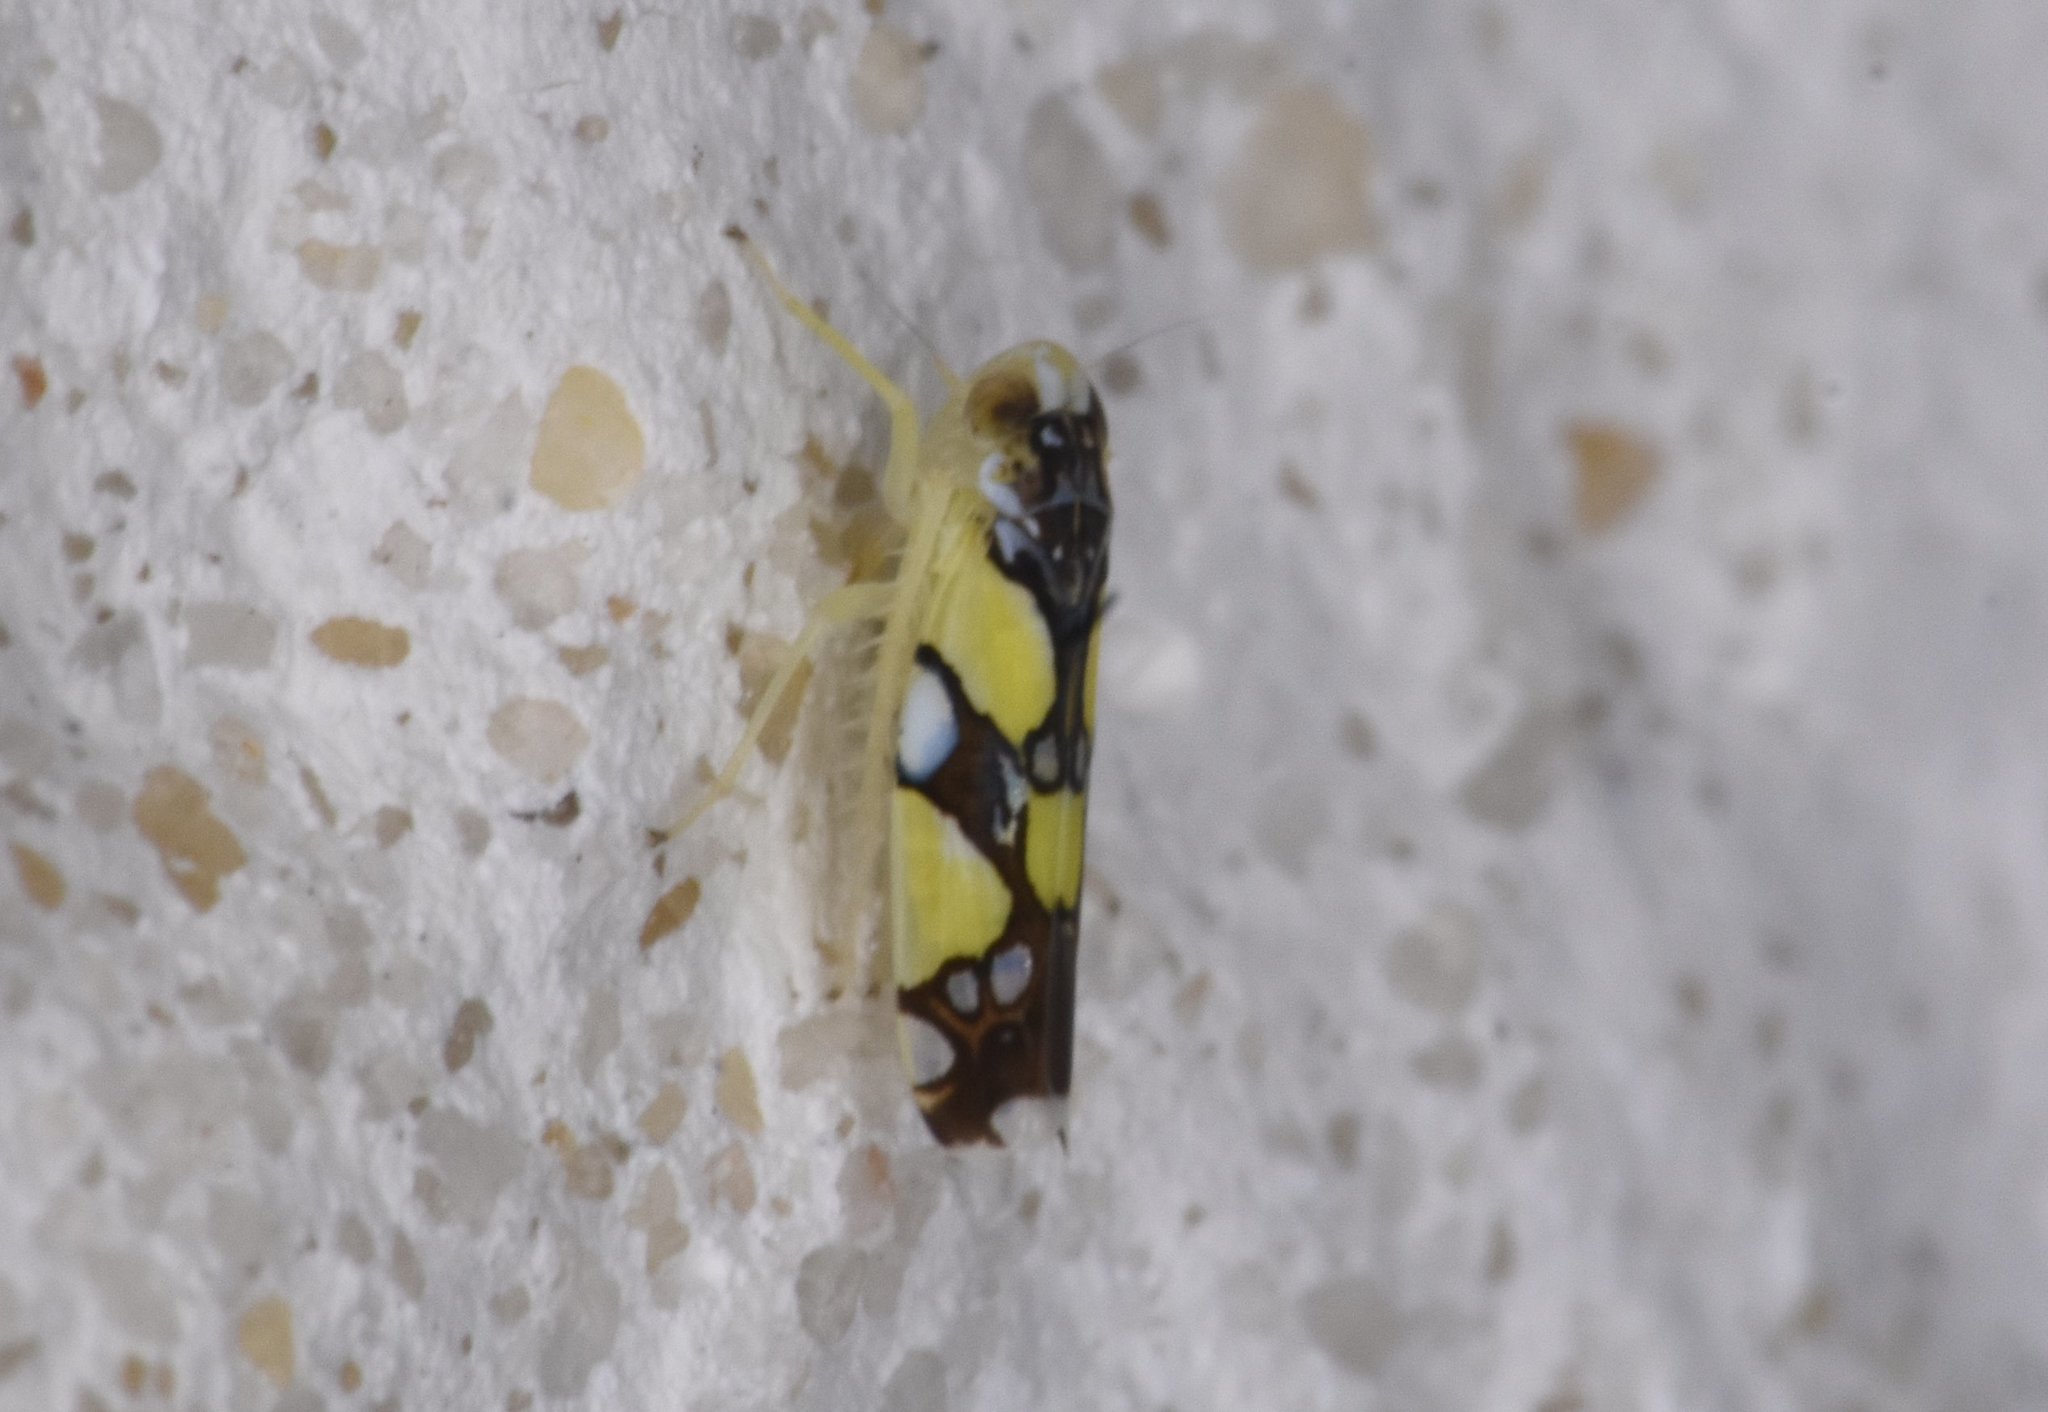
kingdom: Animalia
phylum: Arthropoda
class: Insecta
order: Hemiptera
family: Cicadellidae
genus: Protalebrella
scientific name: Protalebrella brasiliensis
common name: Brasilian leafhopper
